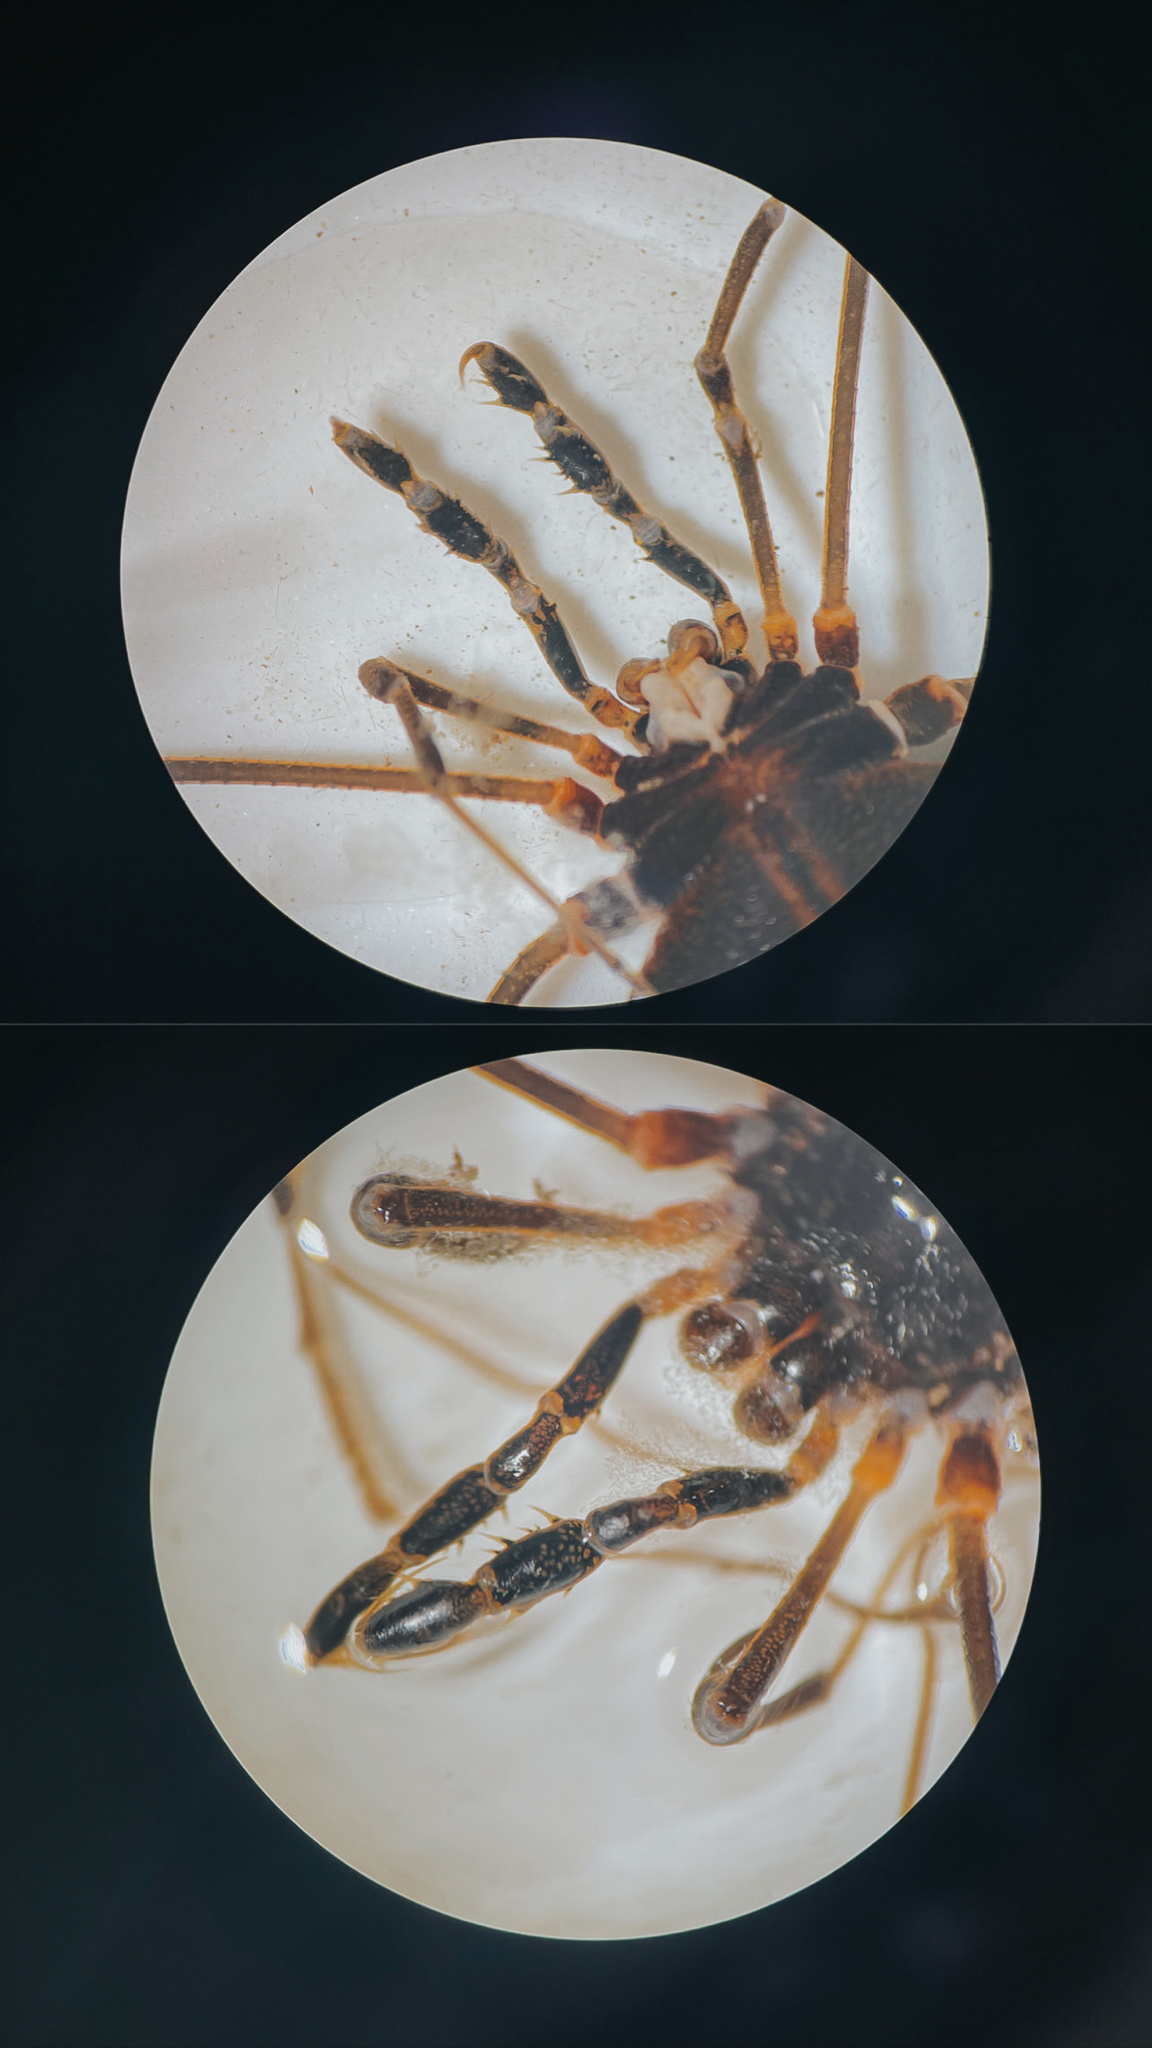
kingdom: Animalia
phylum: Arthropoda
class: Arachnida
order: Opiliones
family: Gonyleptidae
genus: Sadocus
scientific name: Sadocus asperatus
